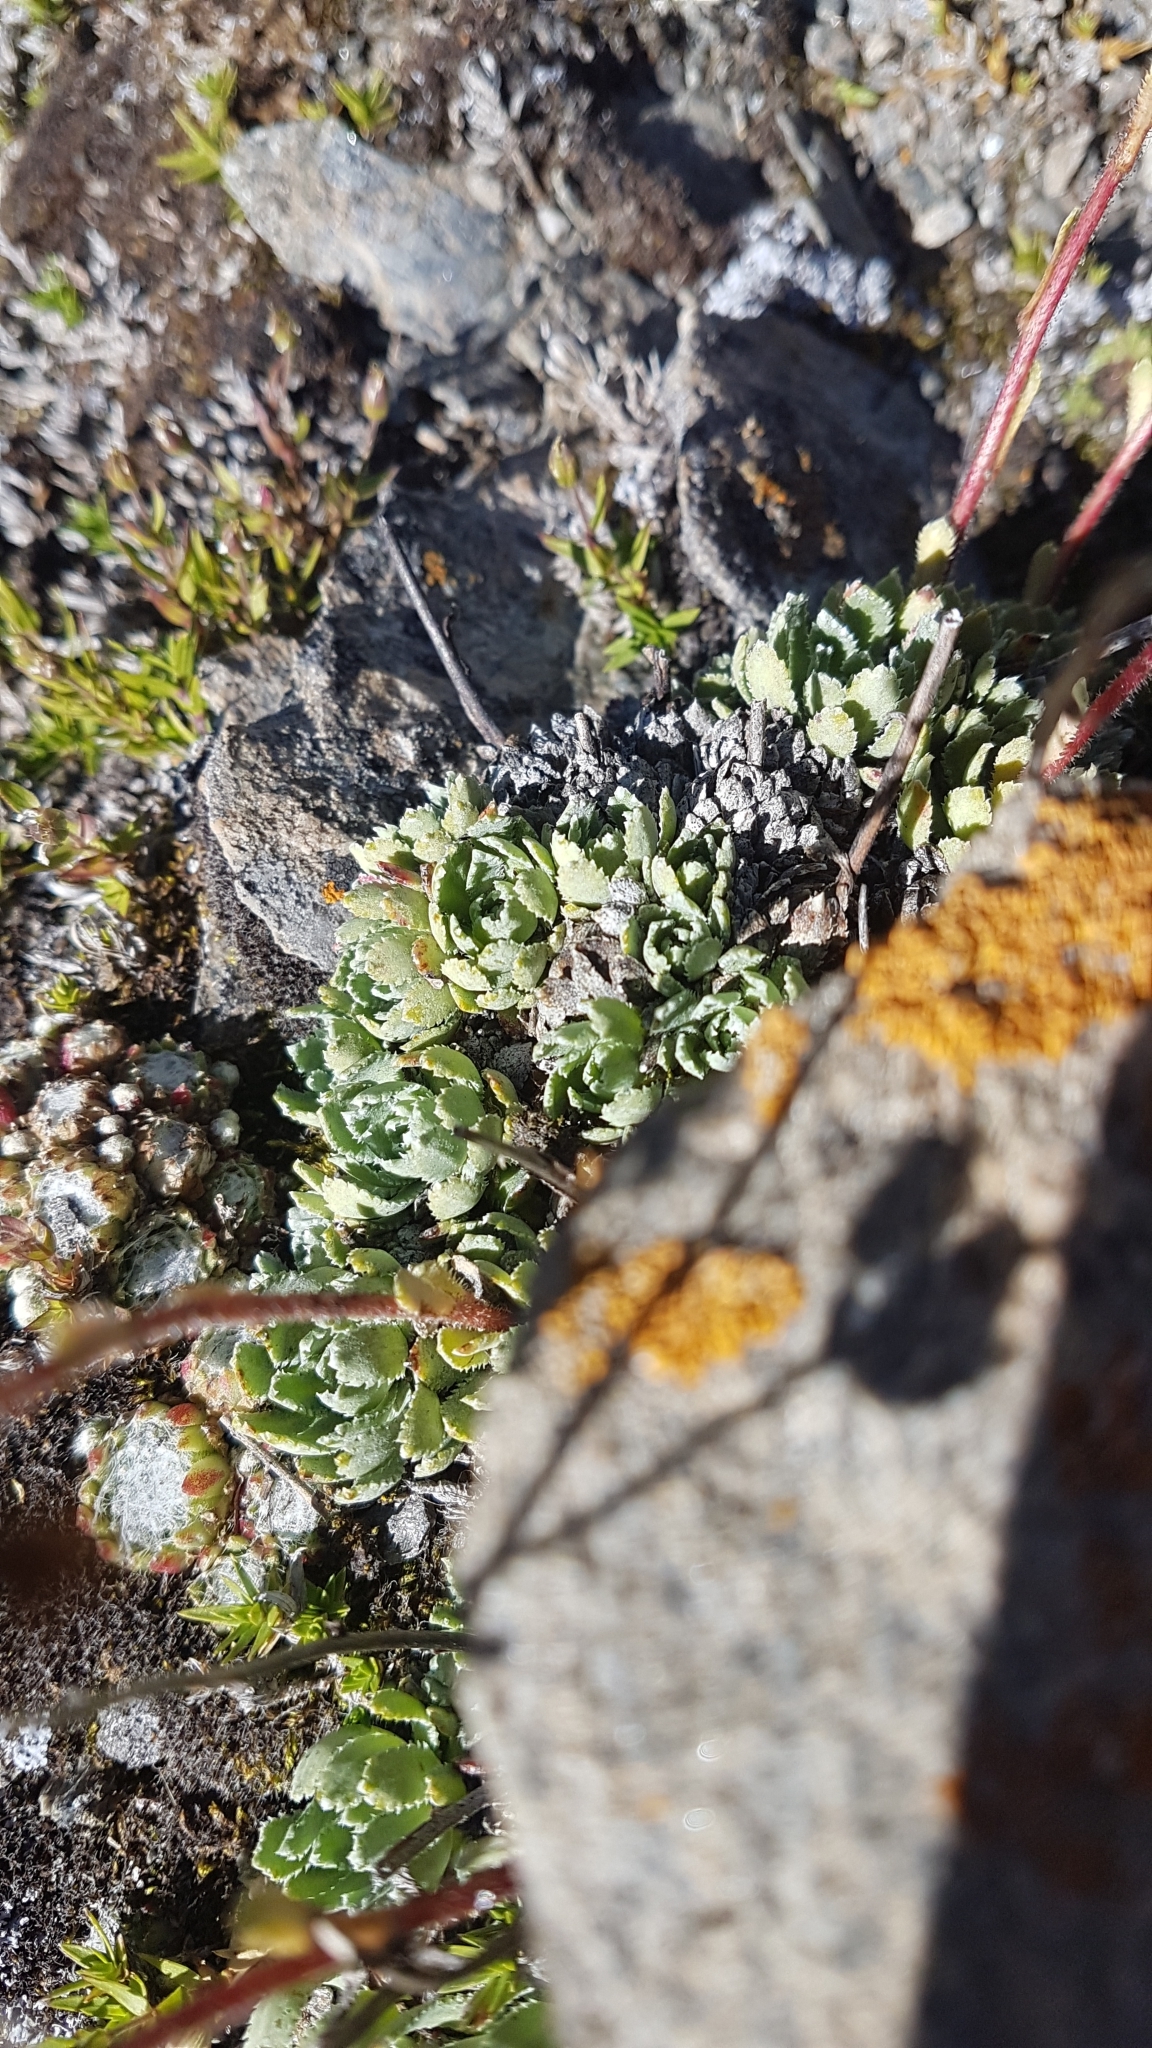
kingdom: Plantae
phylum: Tracheophyta
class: Magnoliopsida
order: Saxifragales
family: Saxifragaceae
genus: Saxifraga
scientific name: Saxifraga paniculata
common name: Livelong saxifrage
